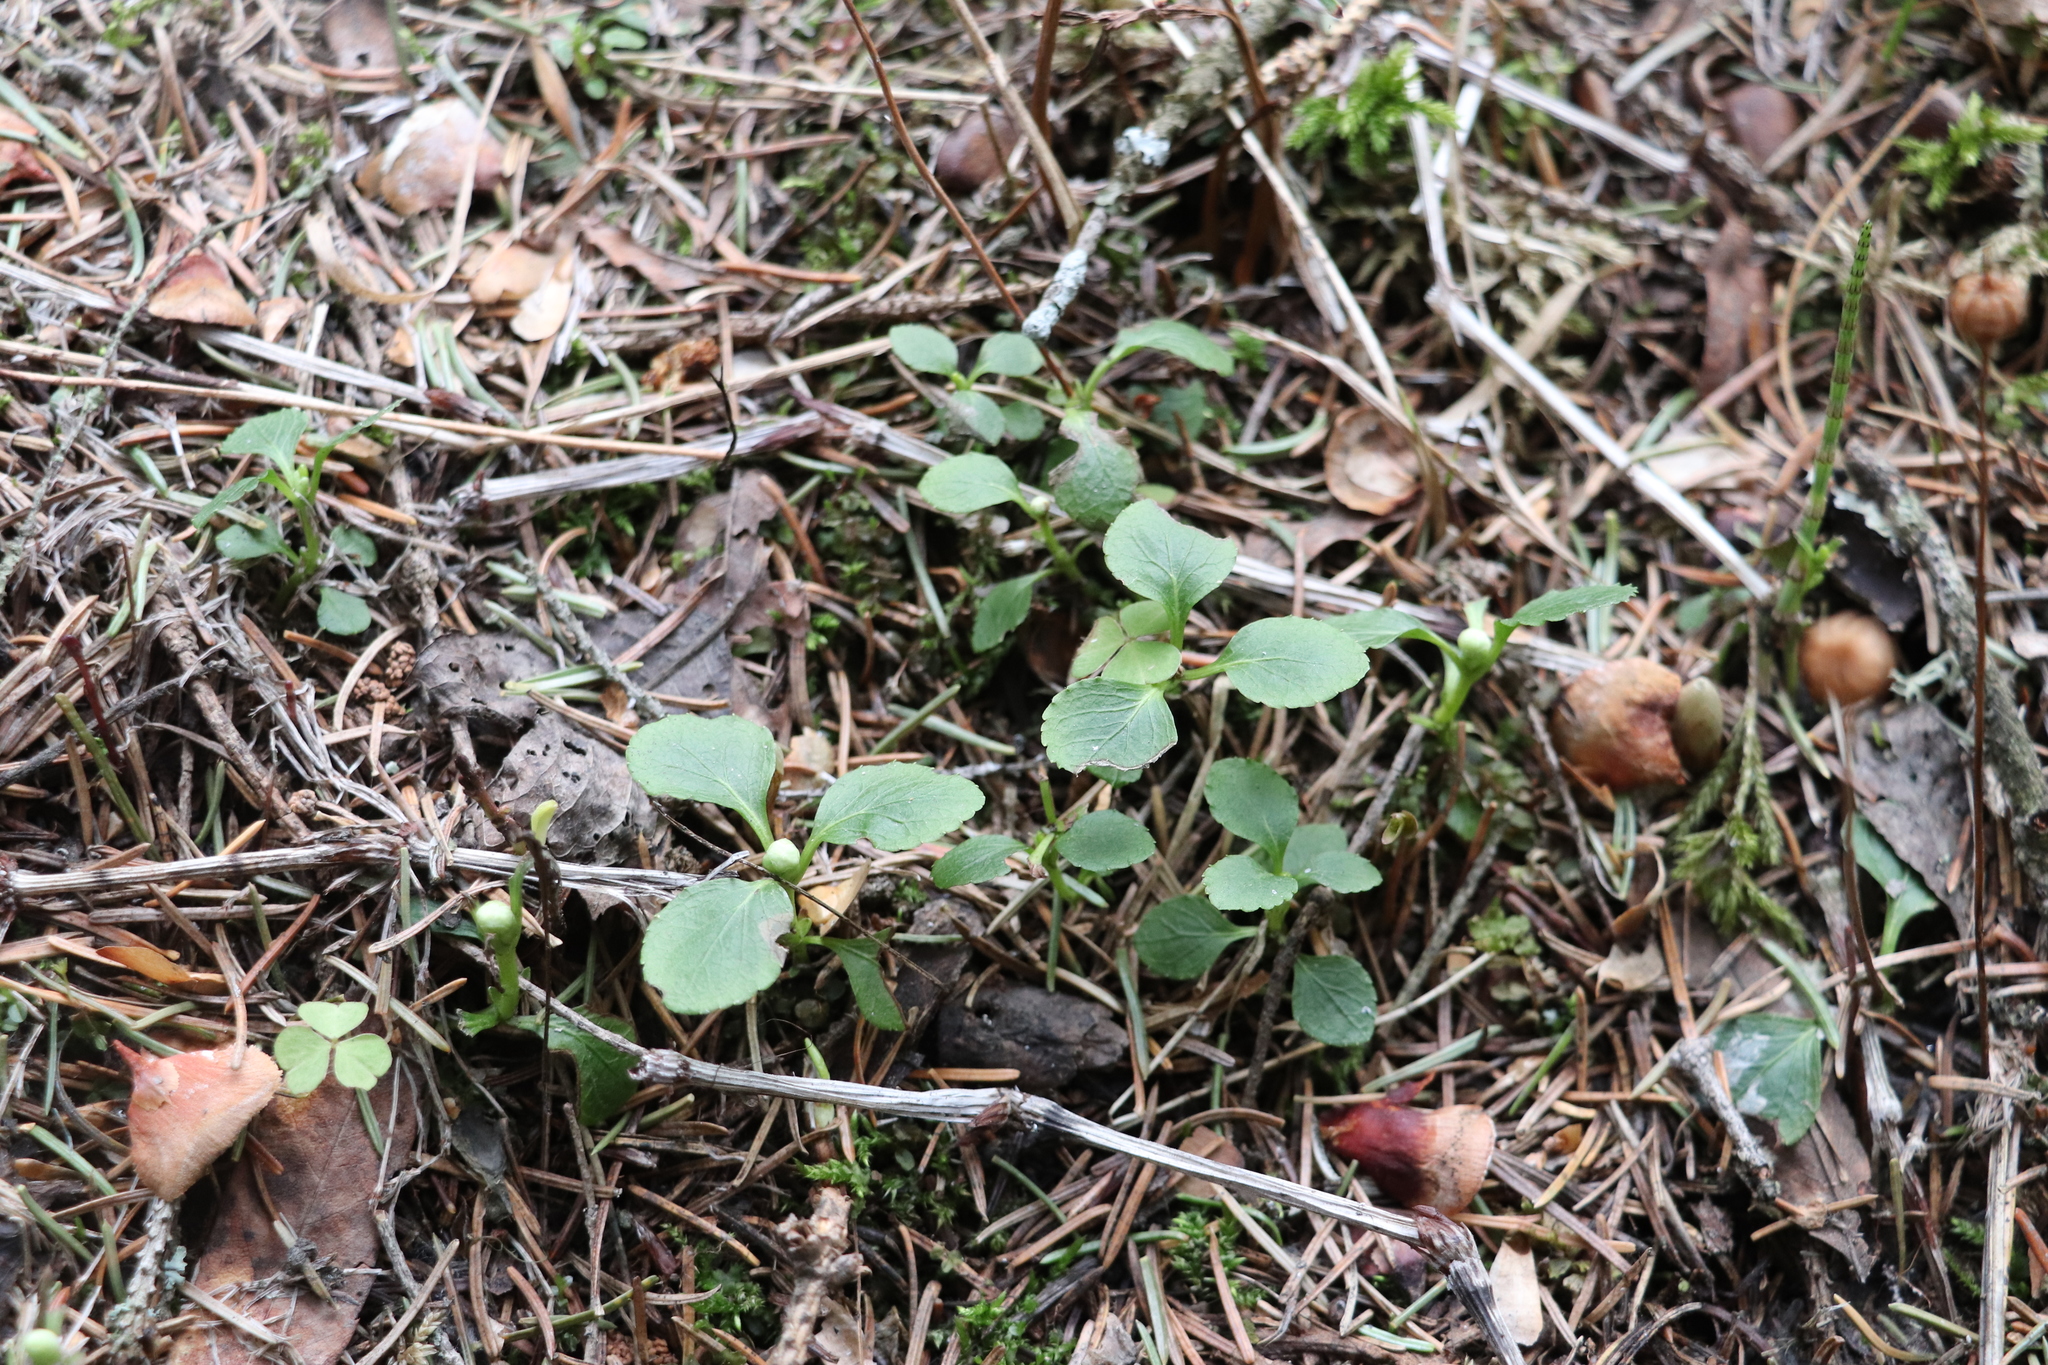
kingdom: Plantae
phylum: Tracheophyta
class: Magnoliopsida
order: Ericales
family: Ericaceae
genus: Moneses
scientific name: Moneses uniflora
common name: One-flowered wintergreen
